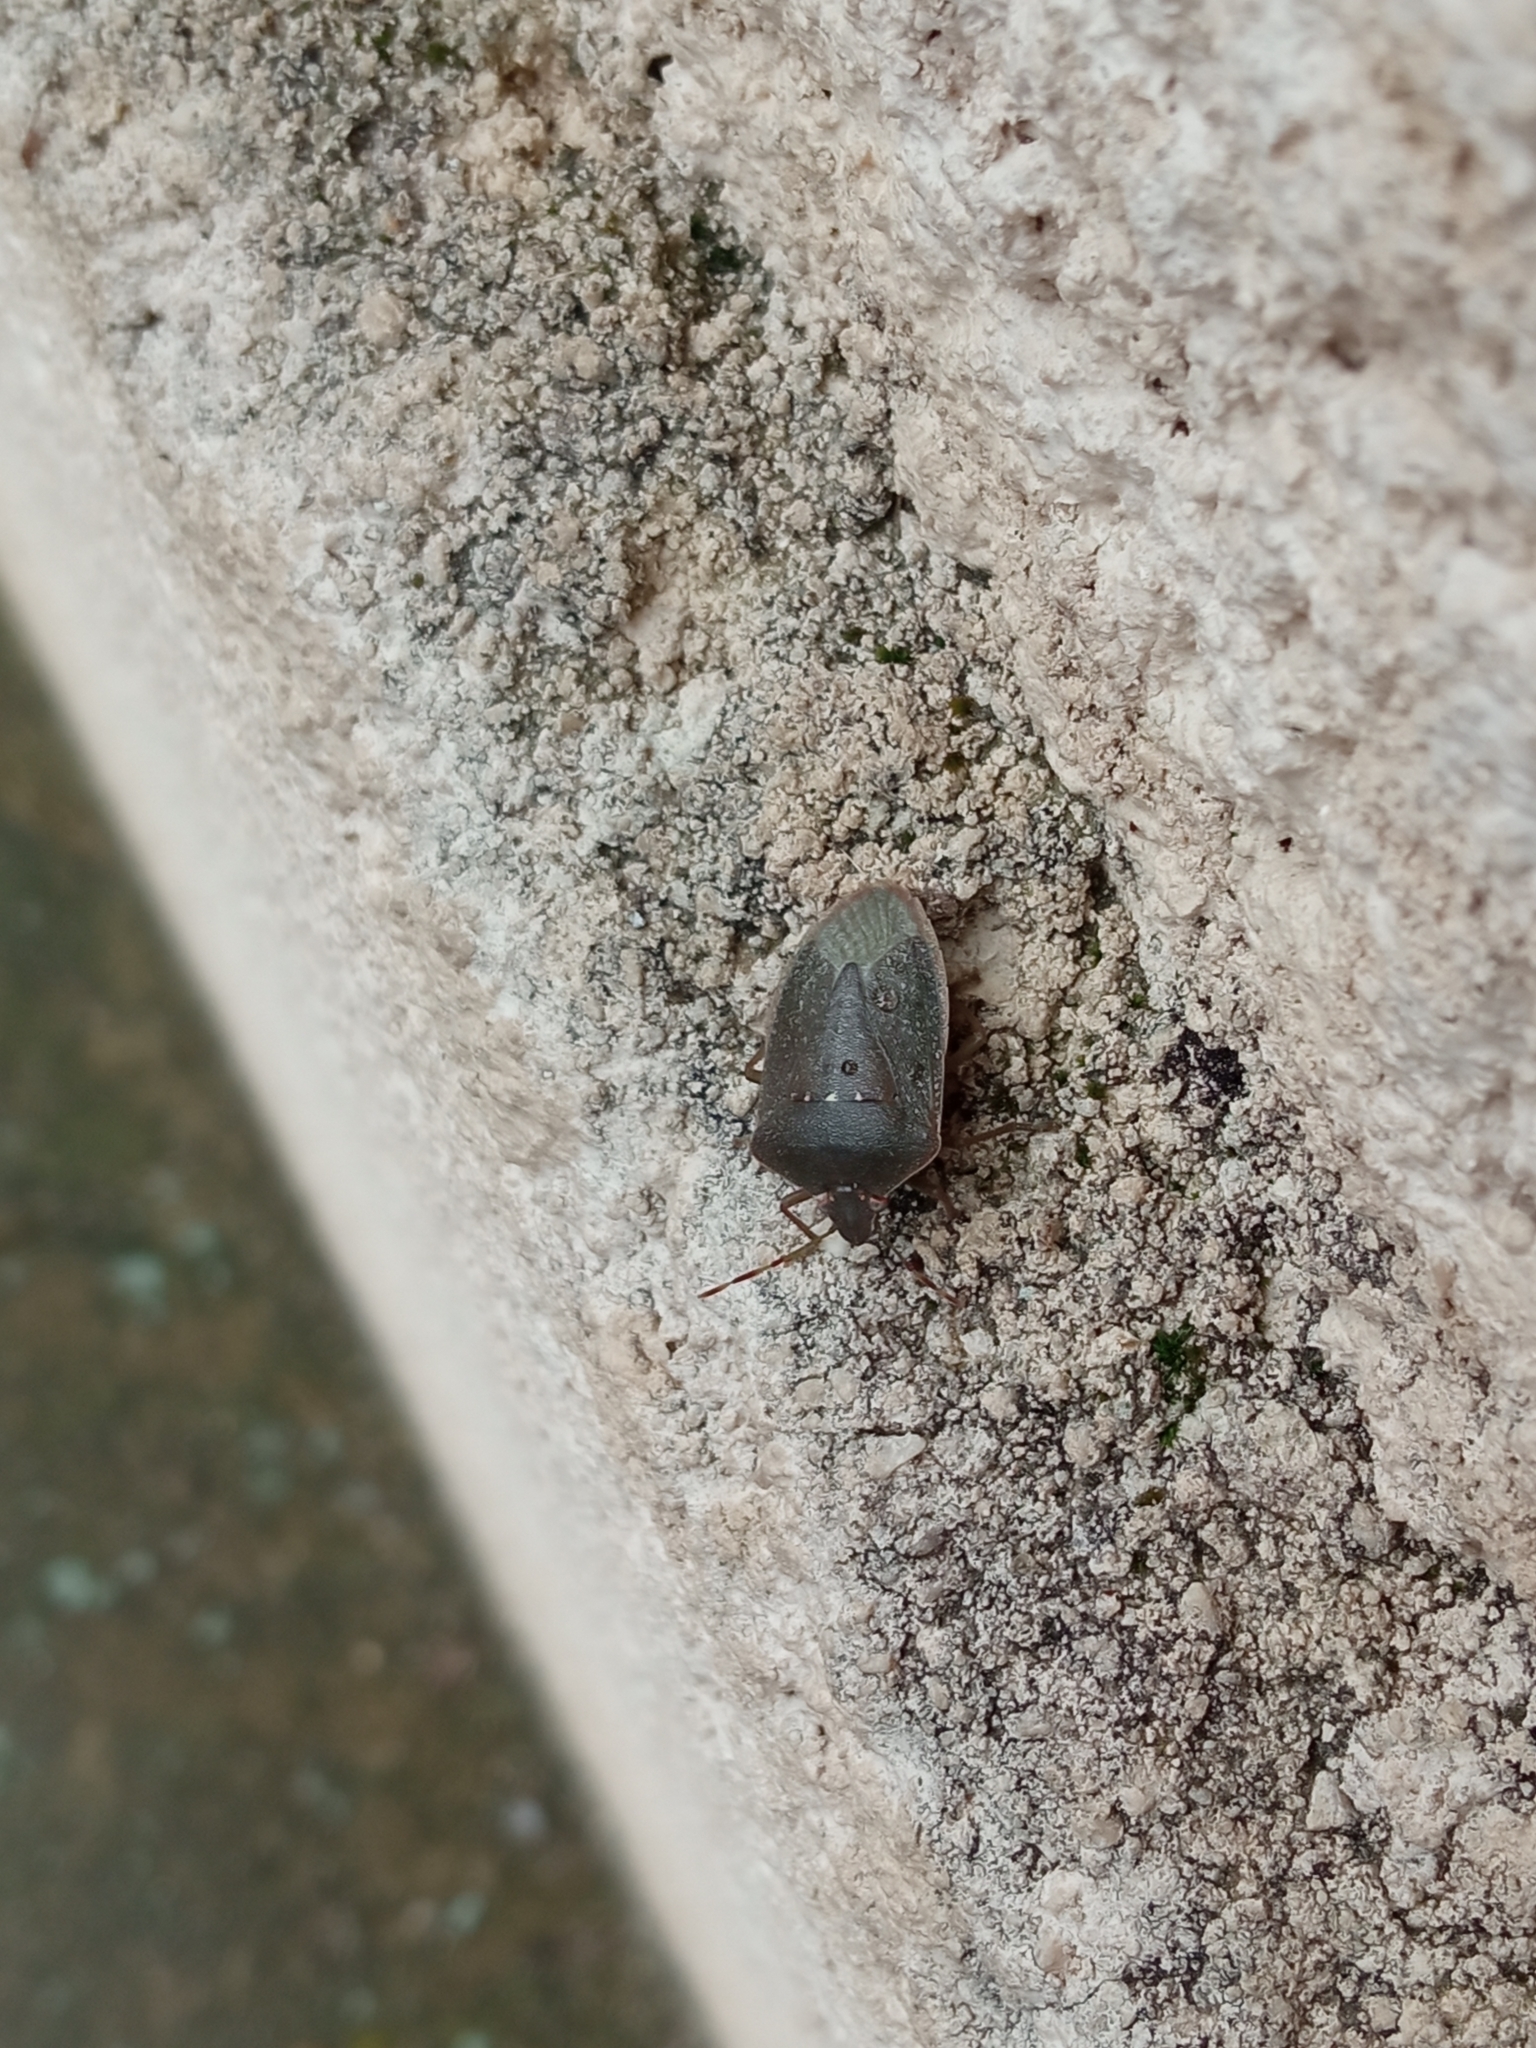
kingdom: Animalia
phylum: Arthropoda
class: Insecta
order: Hemiptera
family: Pentatomidae
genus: Nezara
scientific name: Nezara viridula
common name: Southern green stink bug
